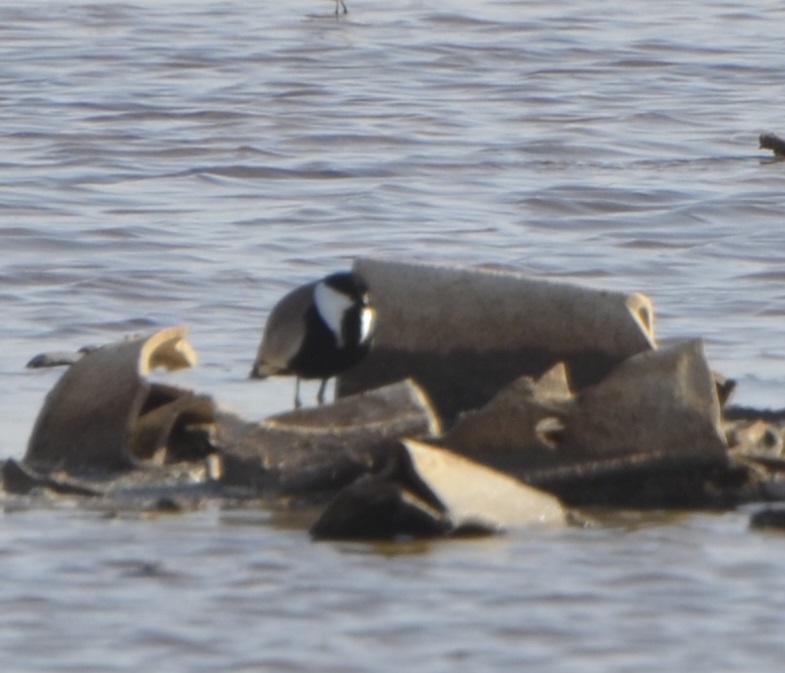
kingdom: Animalia
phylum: Chordata
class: Aves
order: Charadriiformes
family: Charadriidae
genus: Vanellus
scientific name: Vanellus spinosus
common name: Spur-winged lapwing
